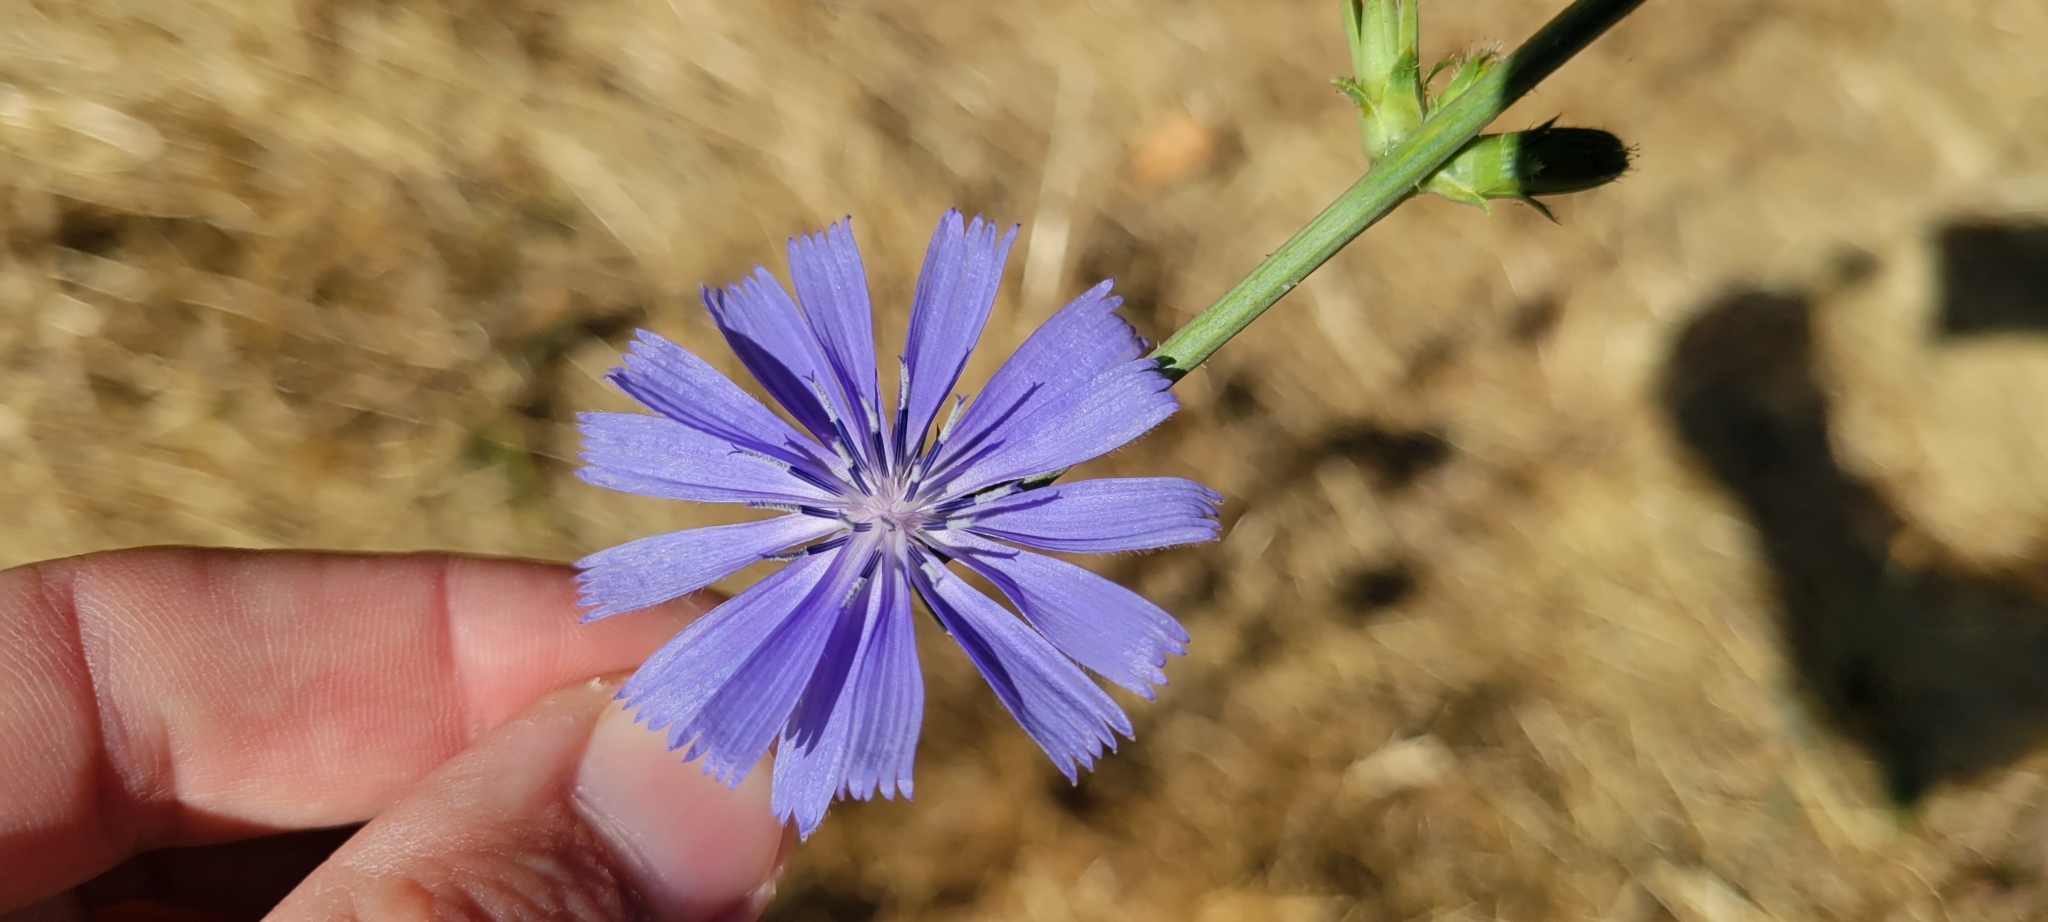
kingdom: Plantae
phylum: Tracheophyta
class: Magnoliopsida
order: Asterales
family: Asteraceae
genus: Cichorium
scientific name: Cichorium intybus
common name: Chicory
